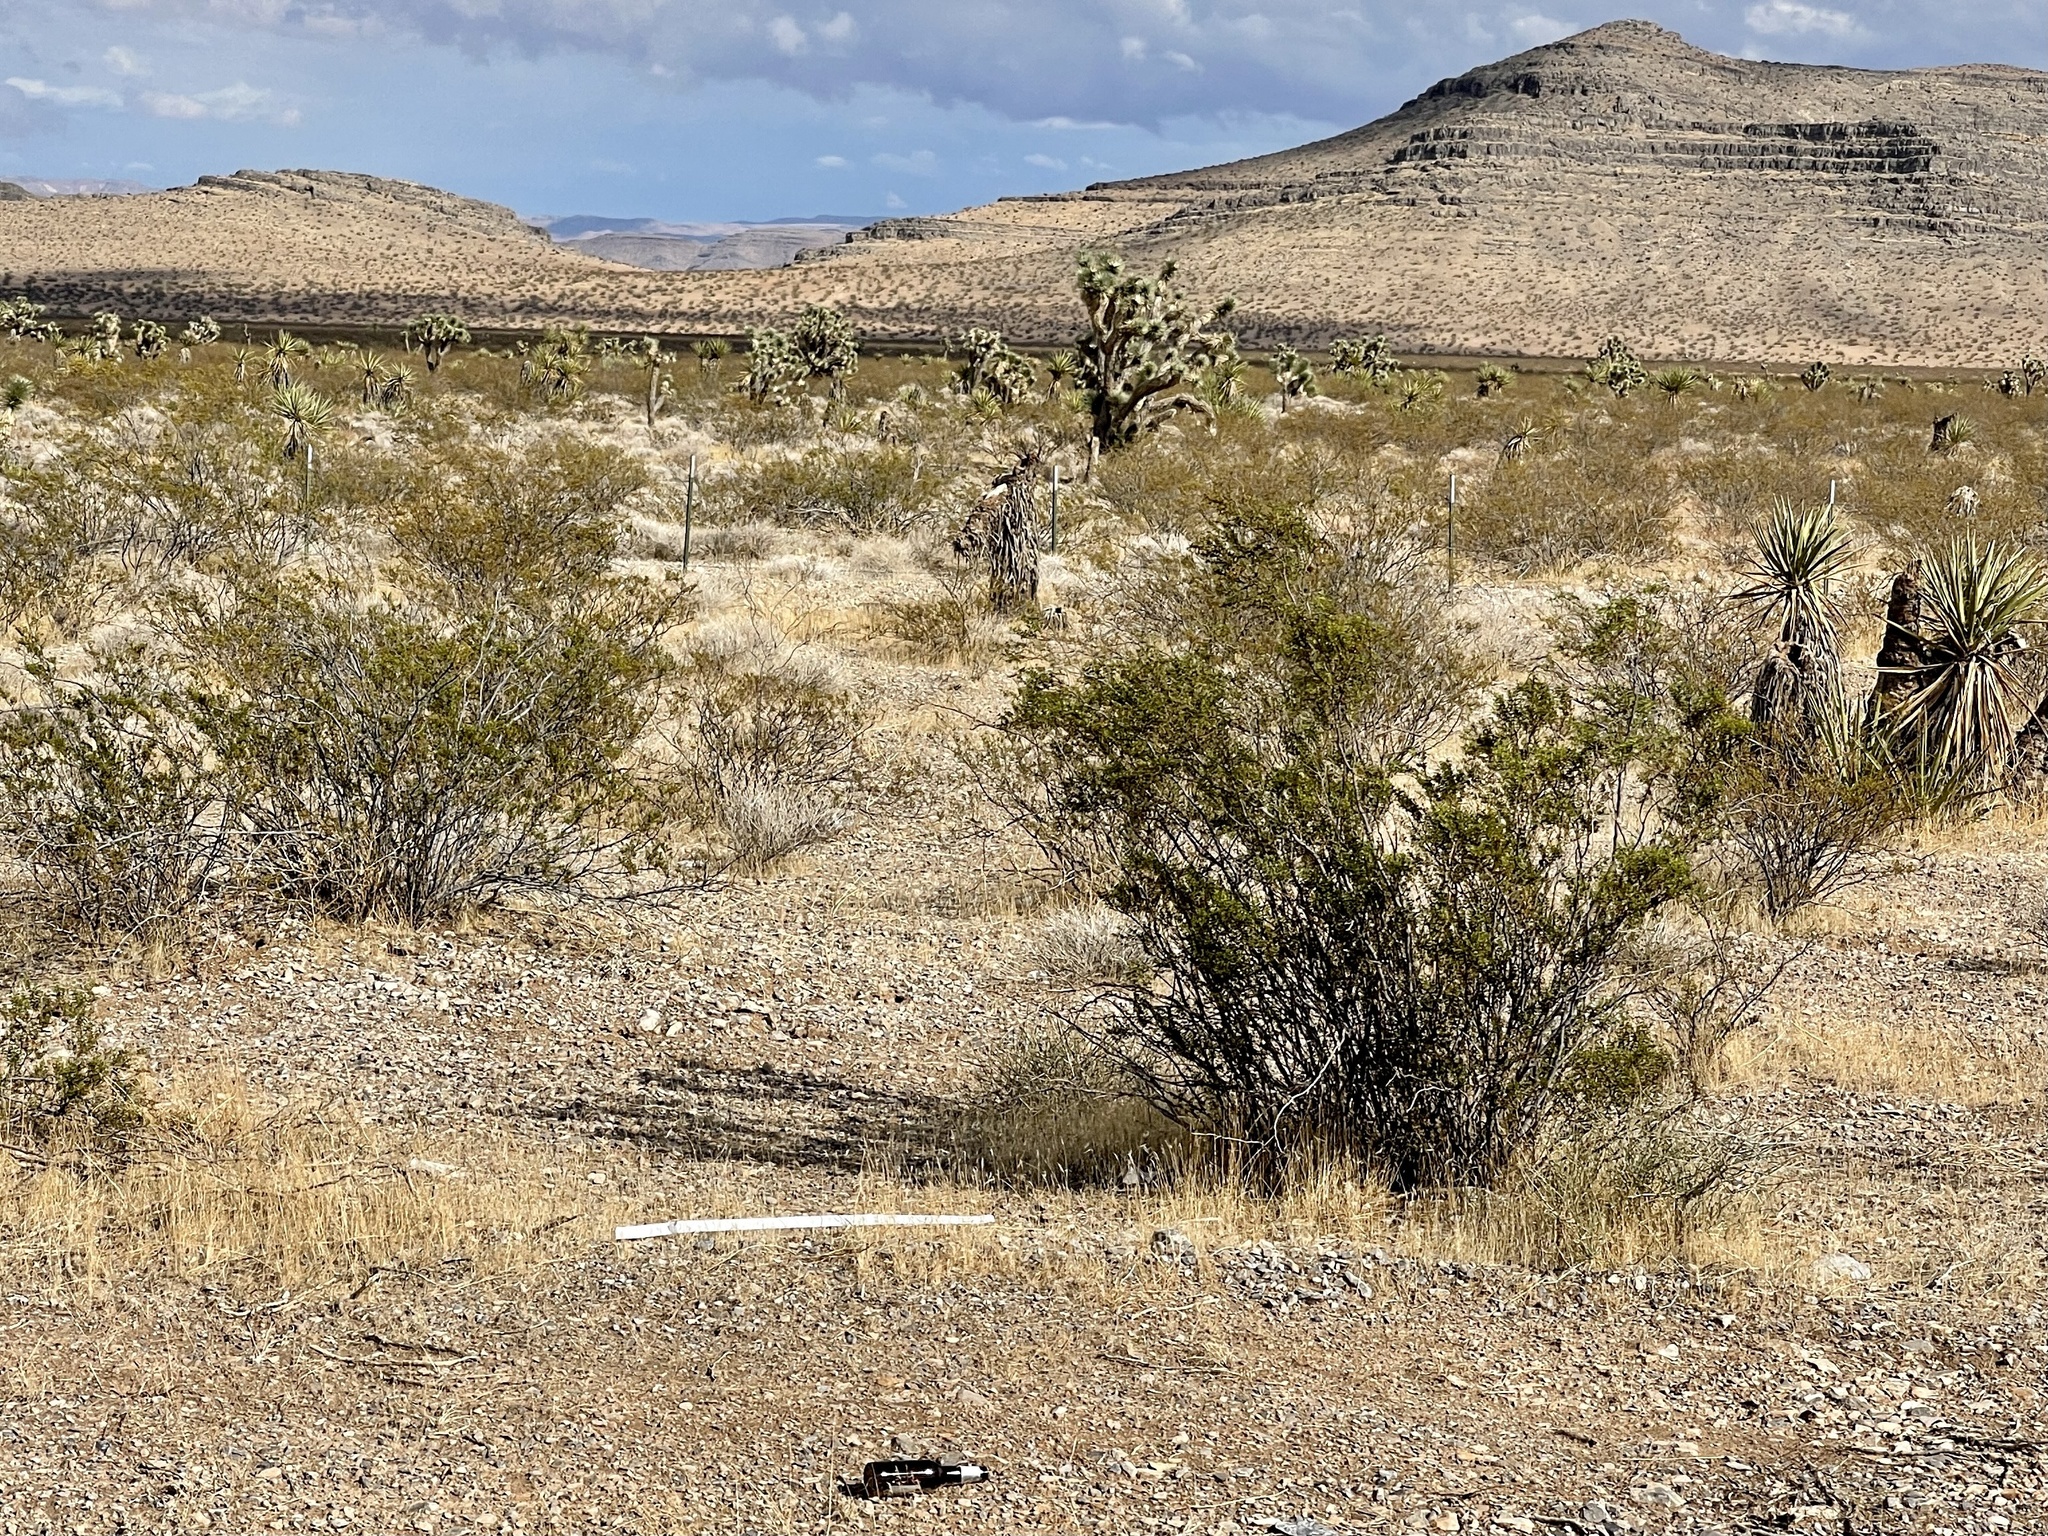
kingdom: Plantae
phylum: Tracheophyta
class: Magnoliopsida
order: Zygophyllales
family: Zygophyllaceae
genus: Larrea
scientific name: Larrea tridentata
